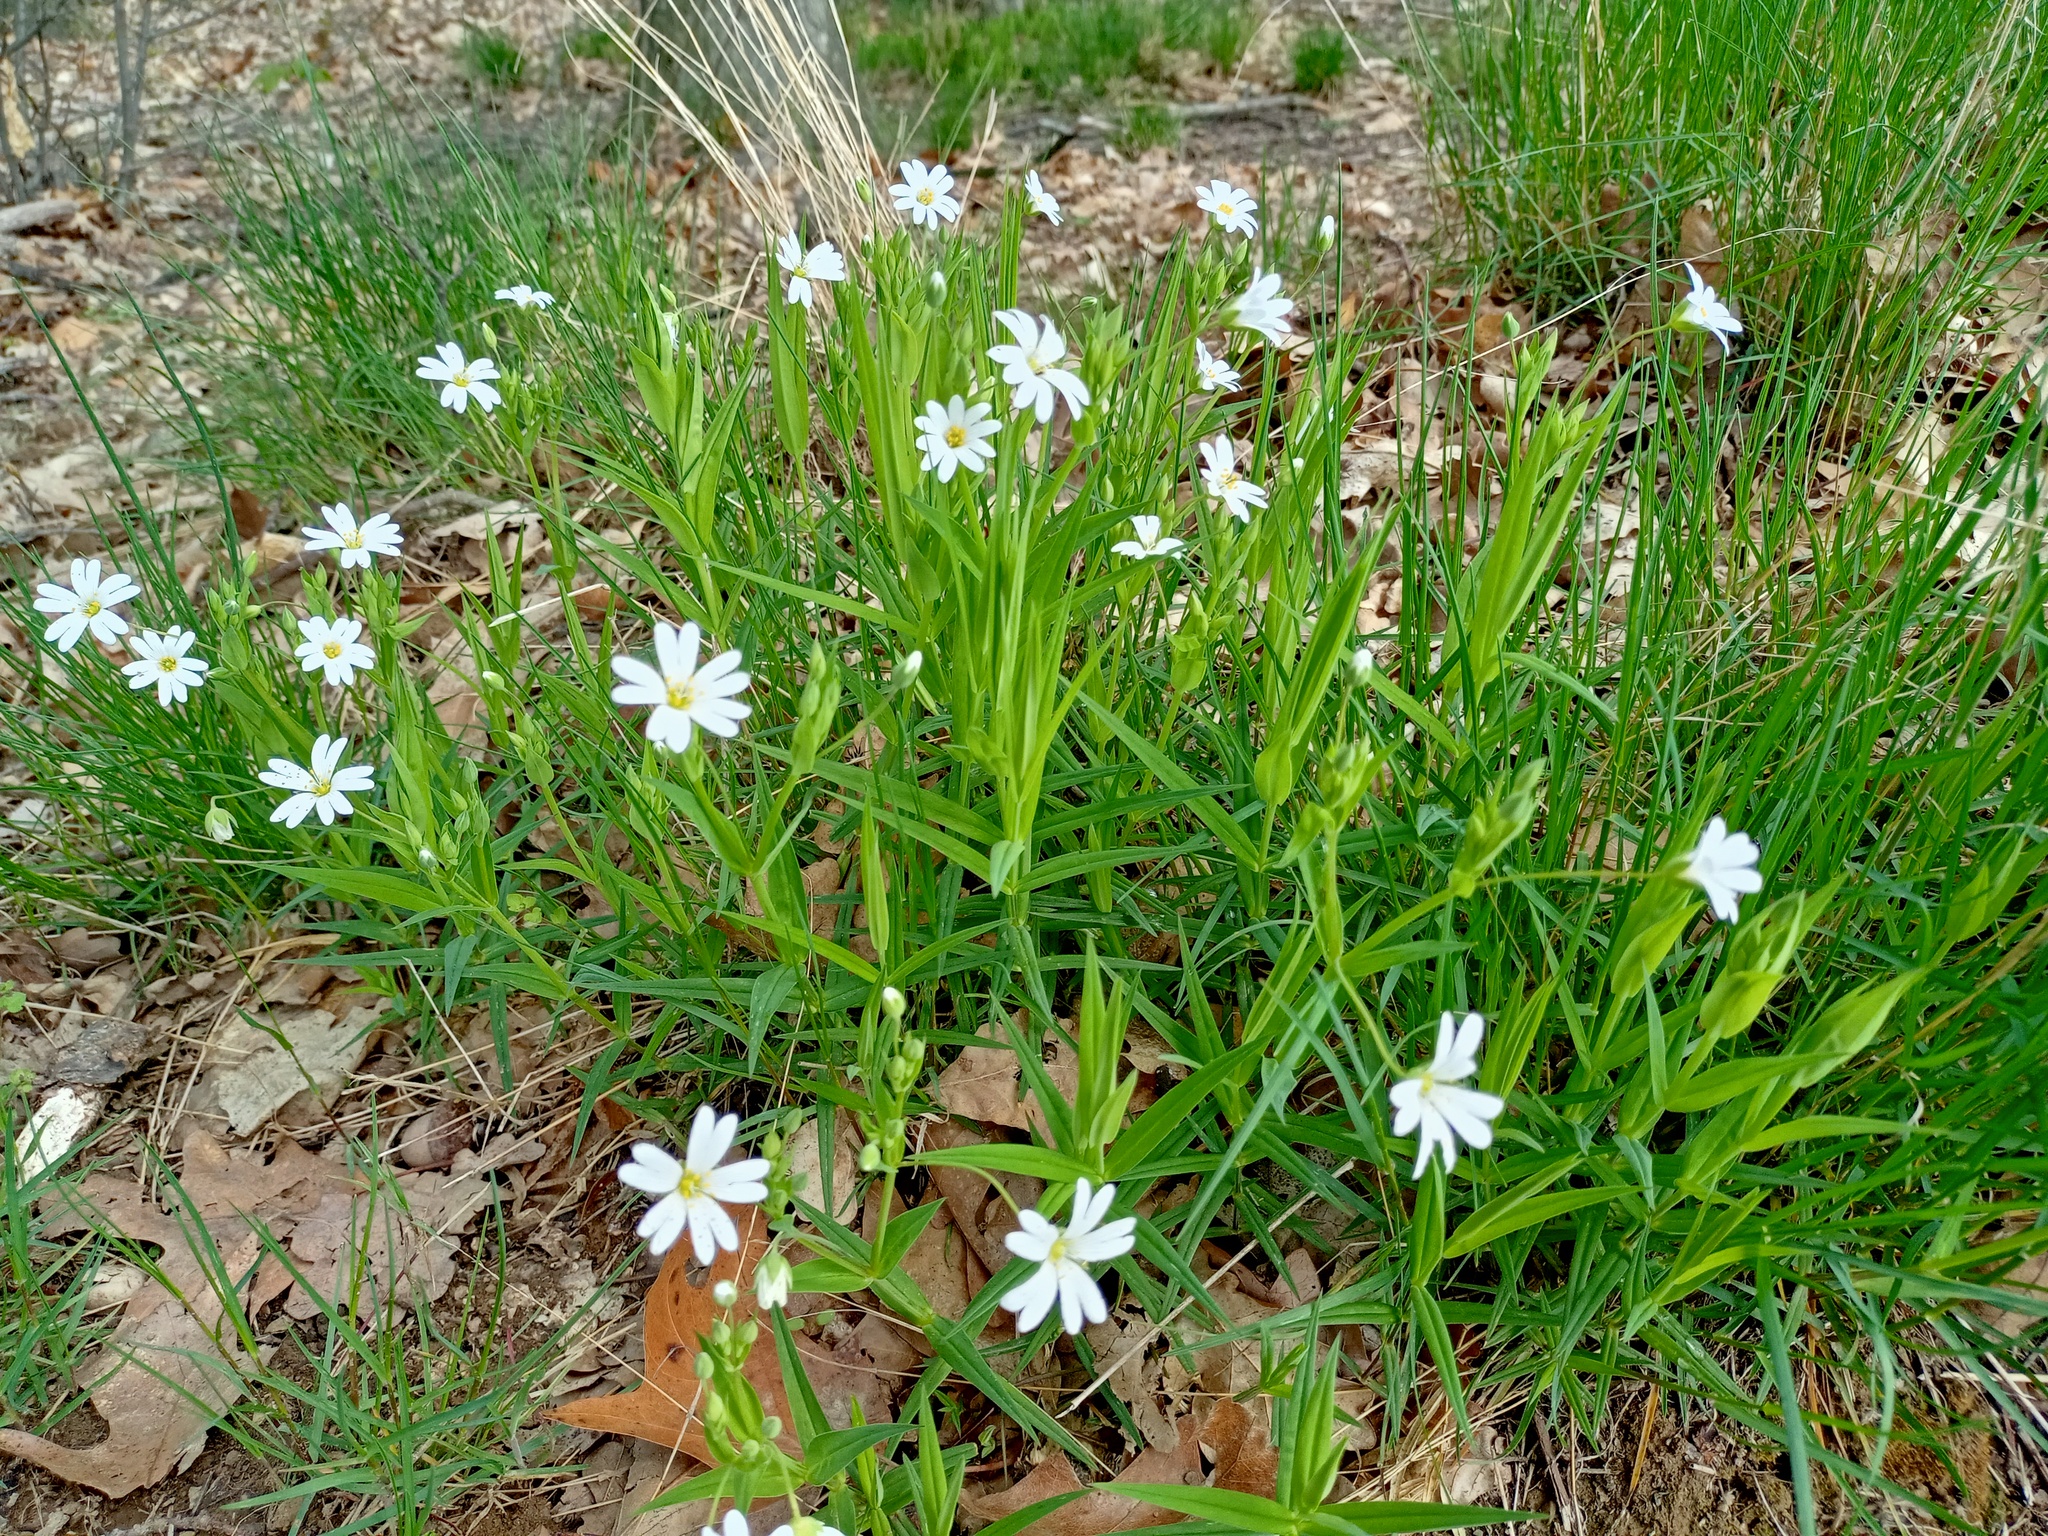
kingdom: Plantae
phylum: Tracheophyta
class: Magnoliopsida
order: Caryophyllales
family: Caryophyllaceae
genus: Rabelera
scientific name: Rabelera holostea
